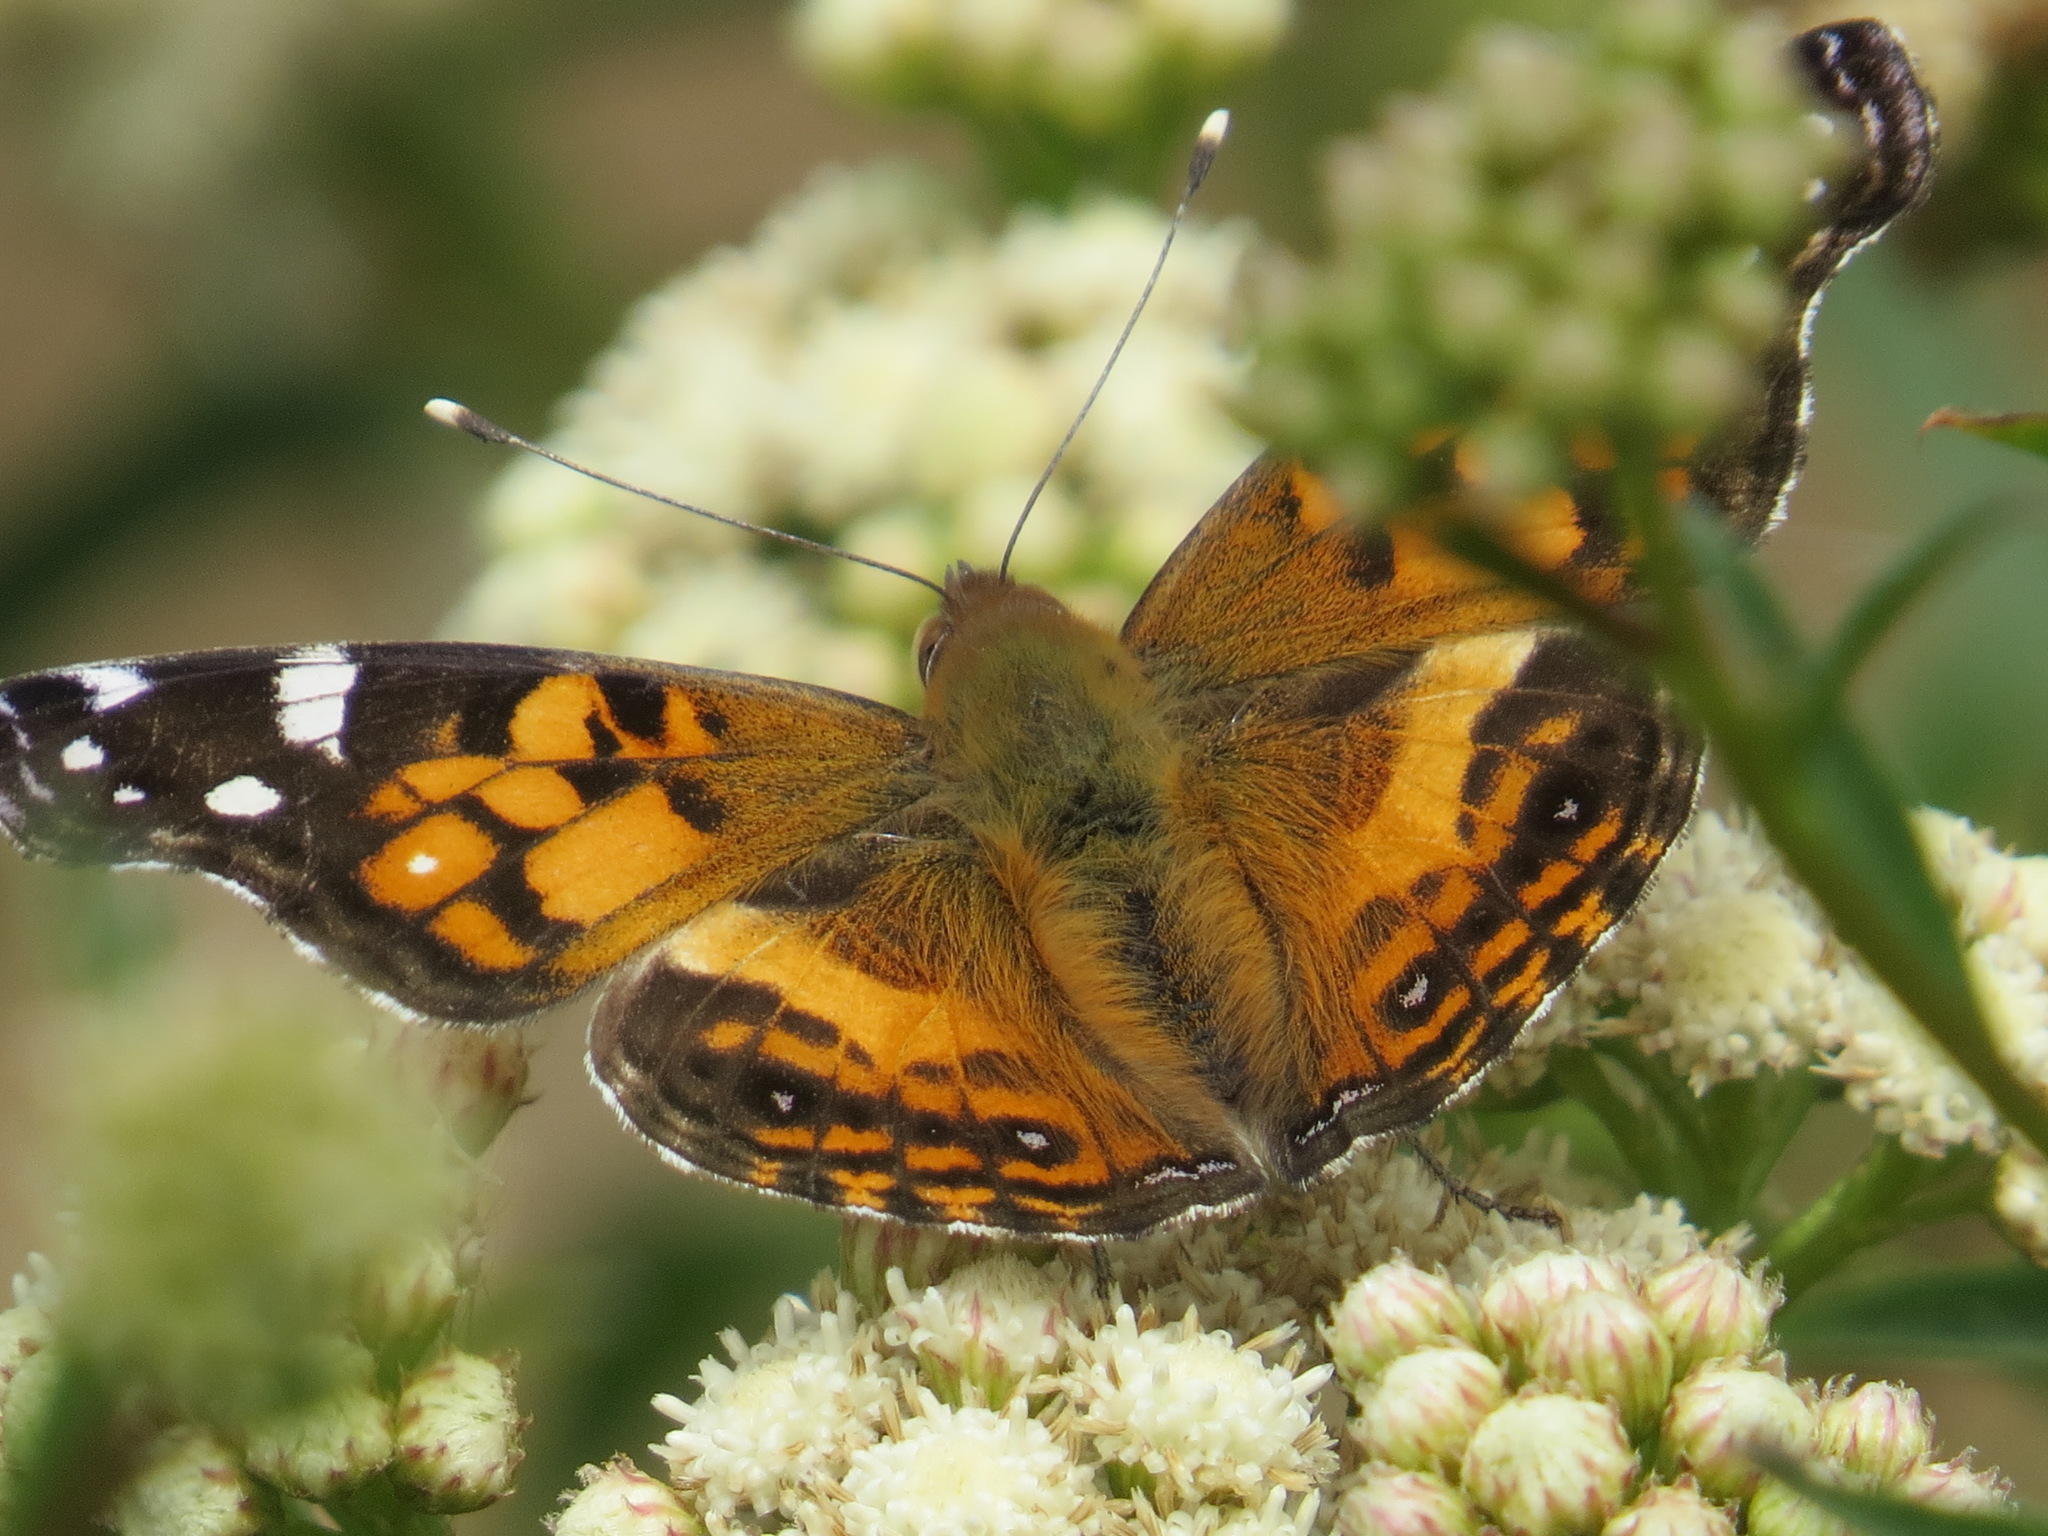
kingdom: Animalia
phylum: Arthropoda
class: Insecta
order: Lepidoptera
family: Nymphalidae
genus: Vanessa
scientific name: Vanessa virginiensis
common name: American lady
